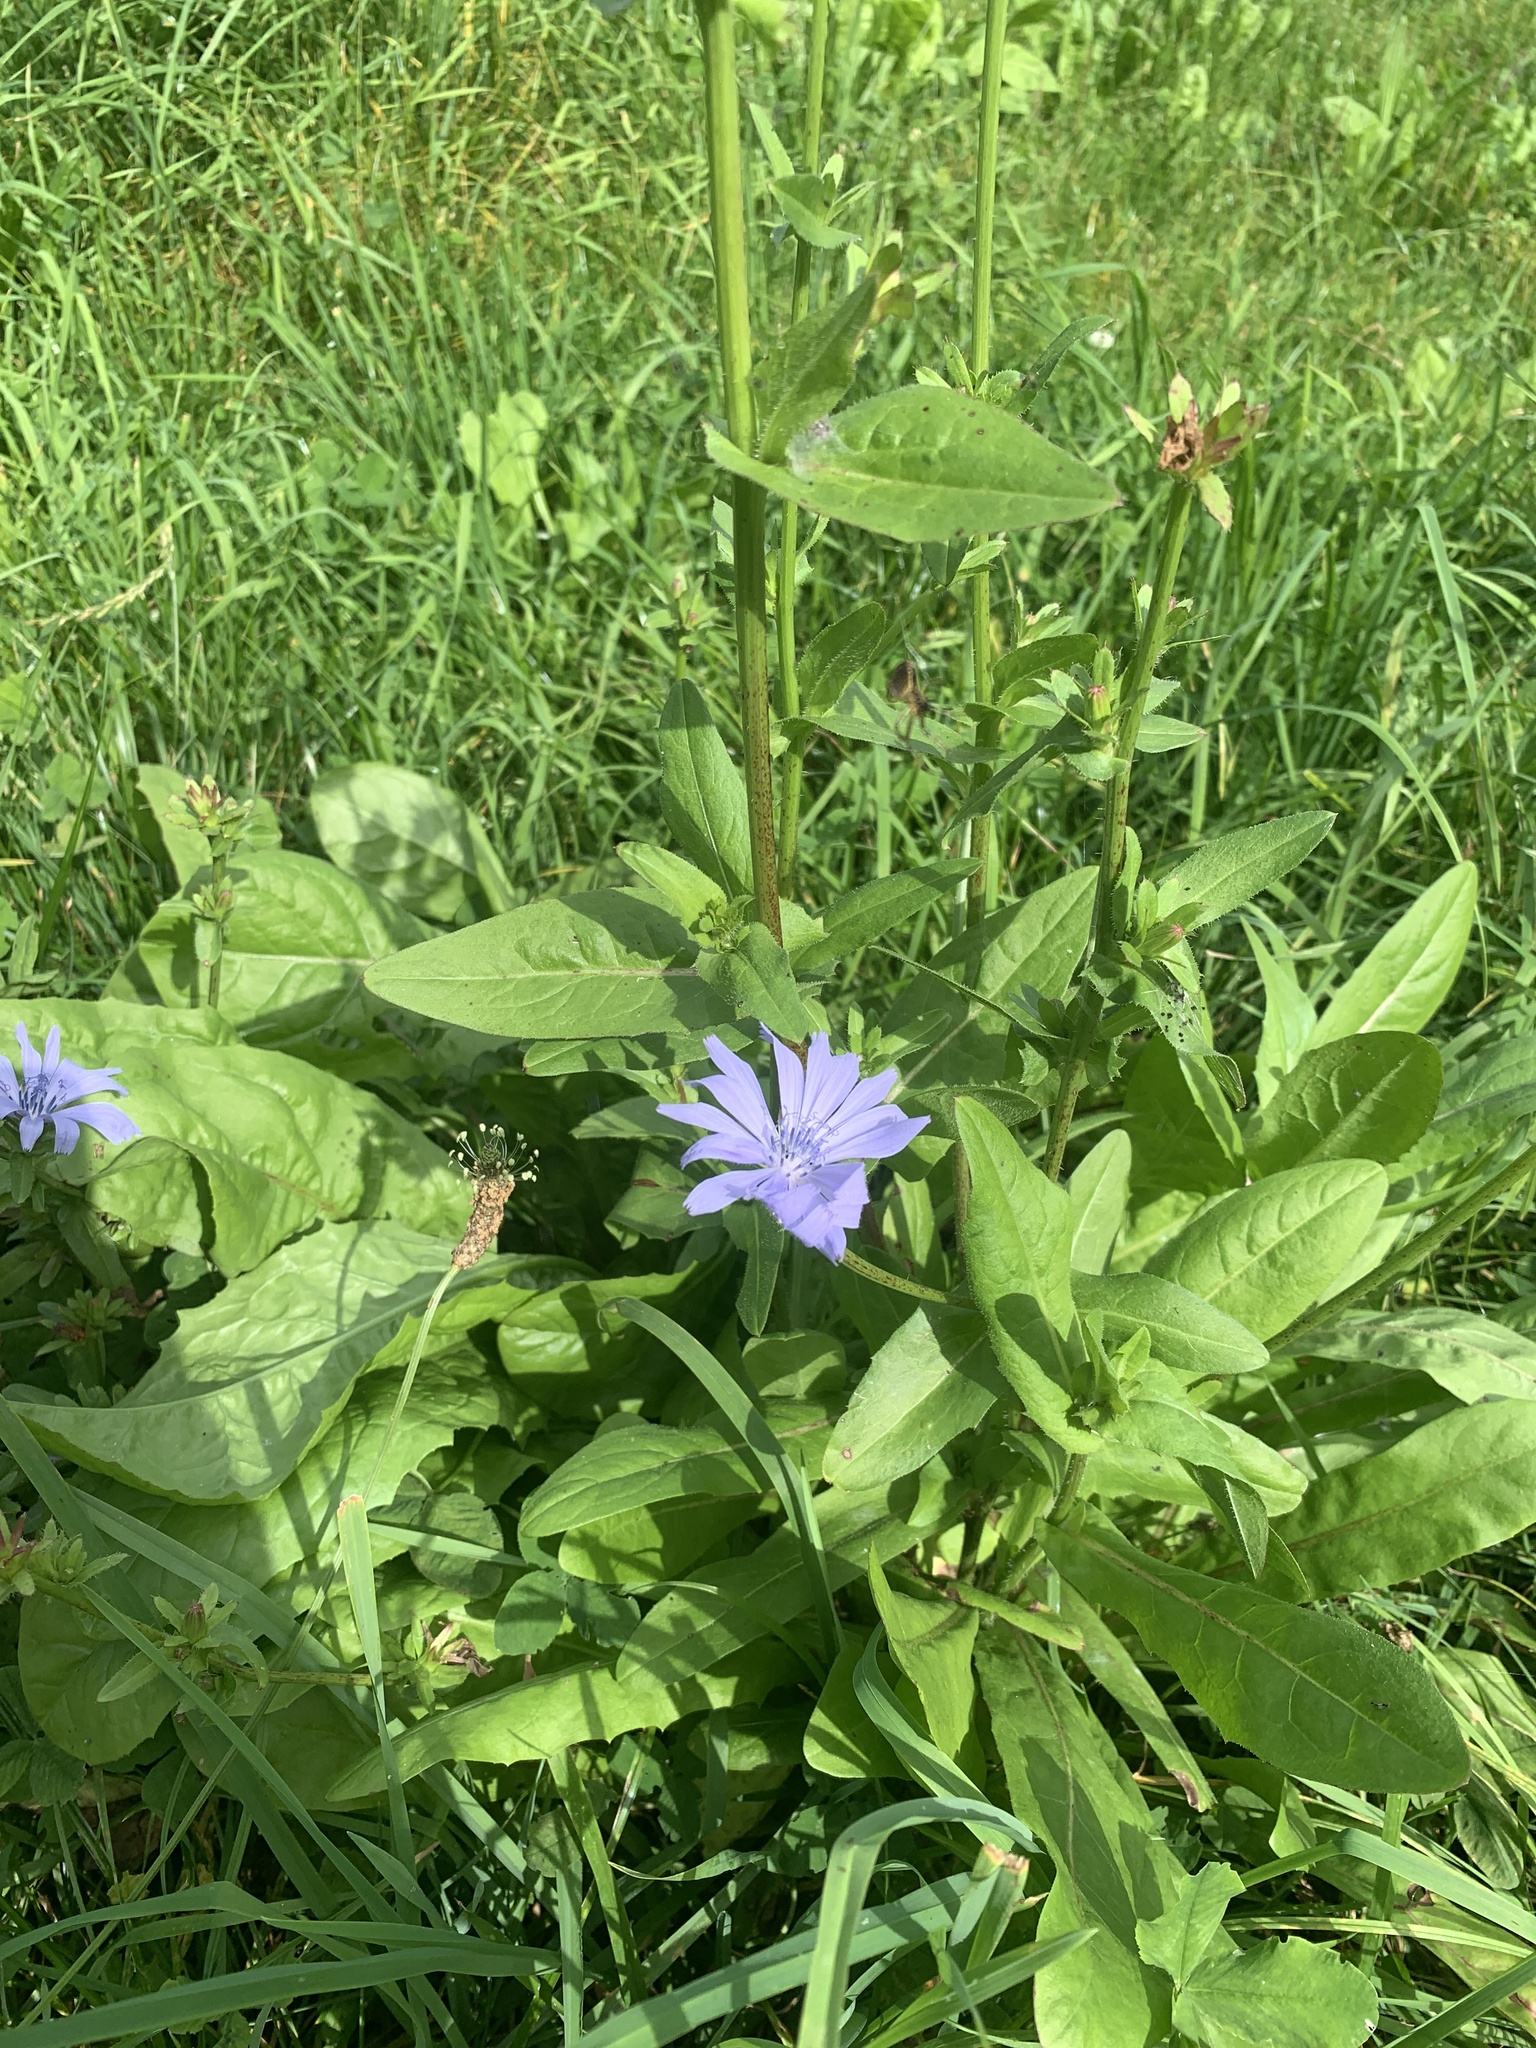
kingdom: Plantae
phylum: Tracheophyta
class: Magnoliopsida
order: Asterales
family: Asteraceae
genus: Cichorium
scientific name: Cichorium intybus
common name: Chicory
